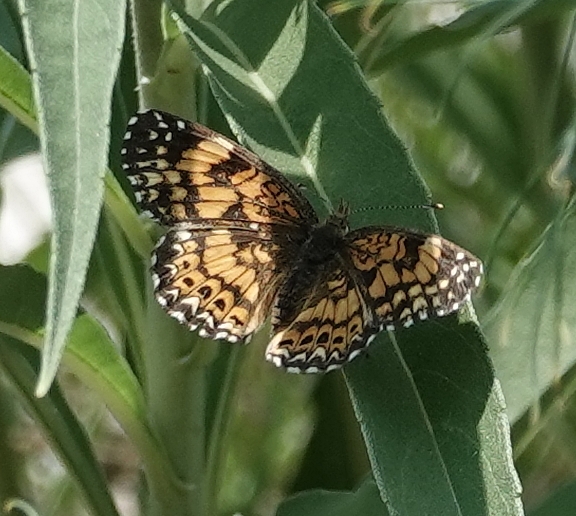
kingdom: Animalia
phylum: Arthropoda
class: Insecta
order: Lepidoptera
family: Nymphalidae
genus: Chlosyne
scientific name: Chlosyne gorgone
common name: Gorgone checkerspot
